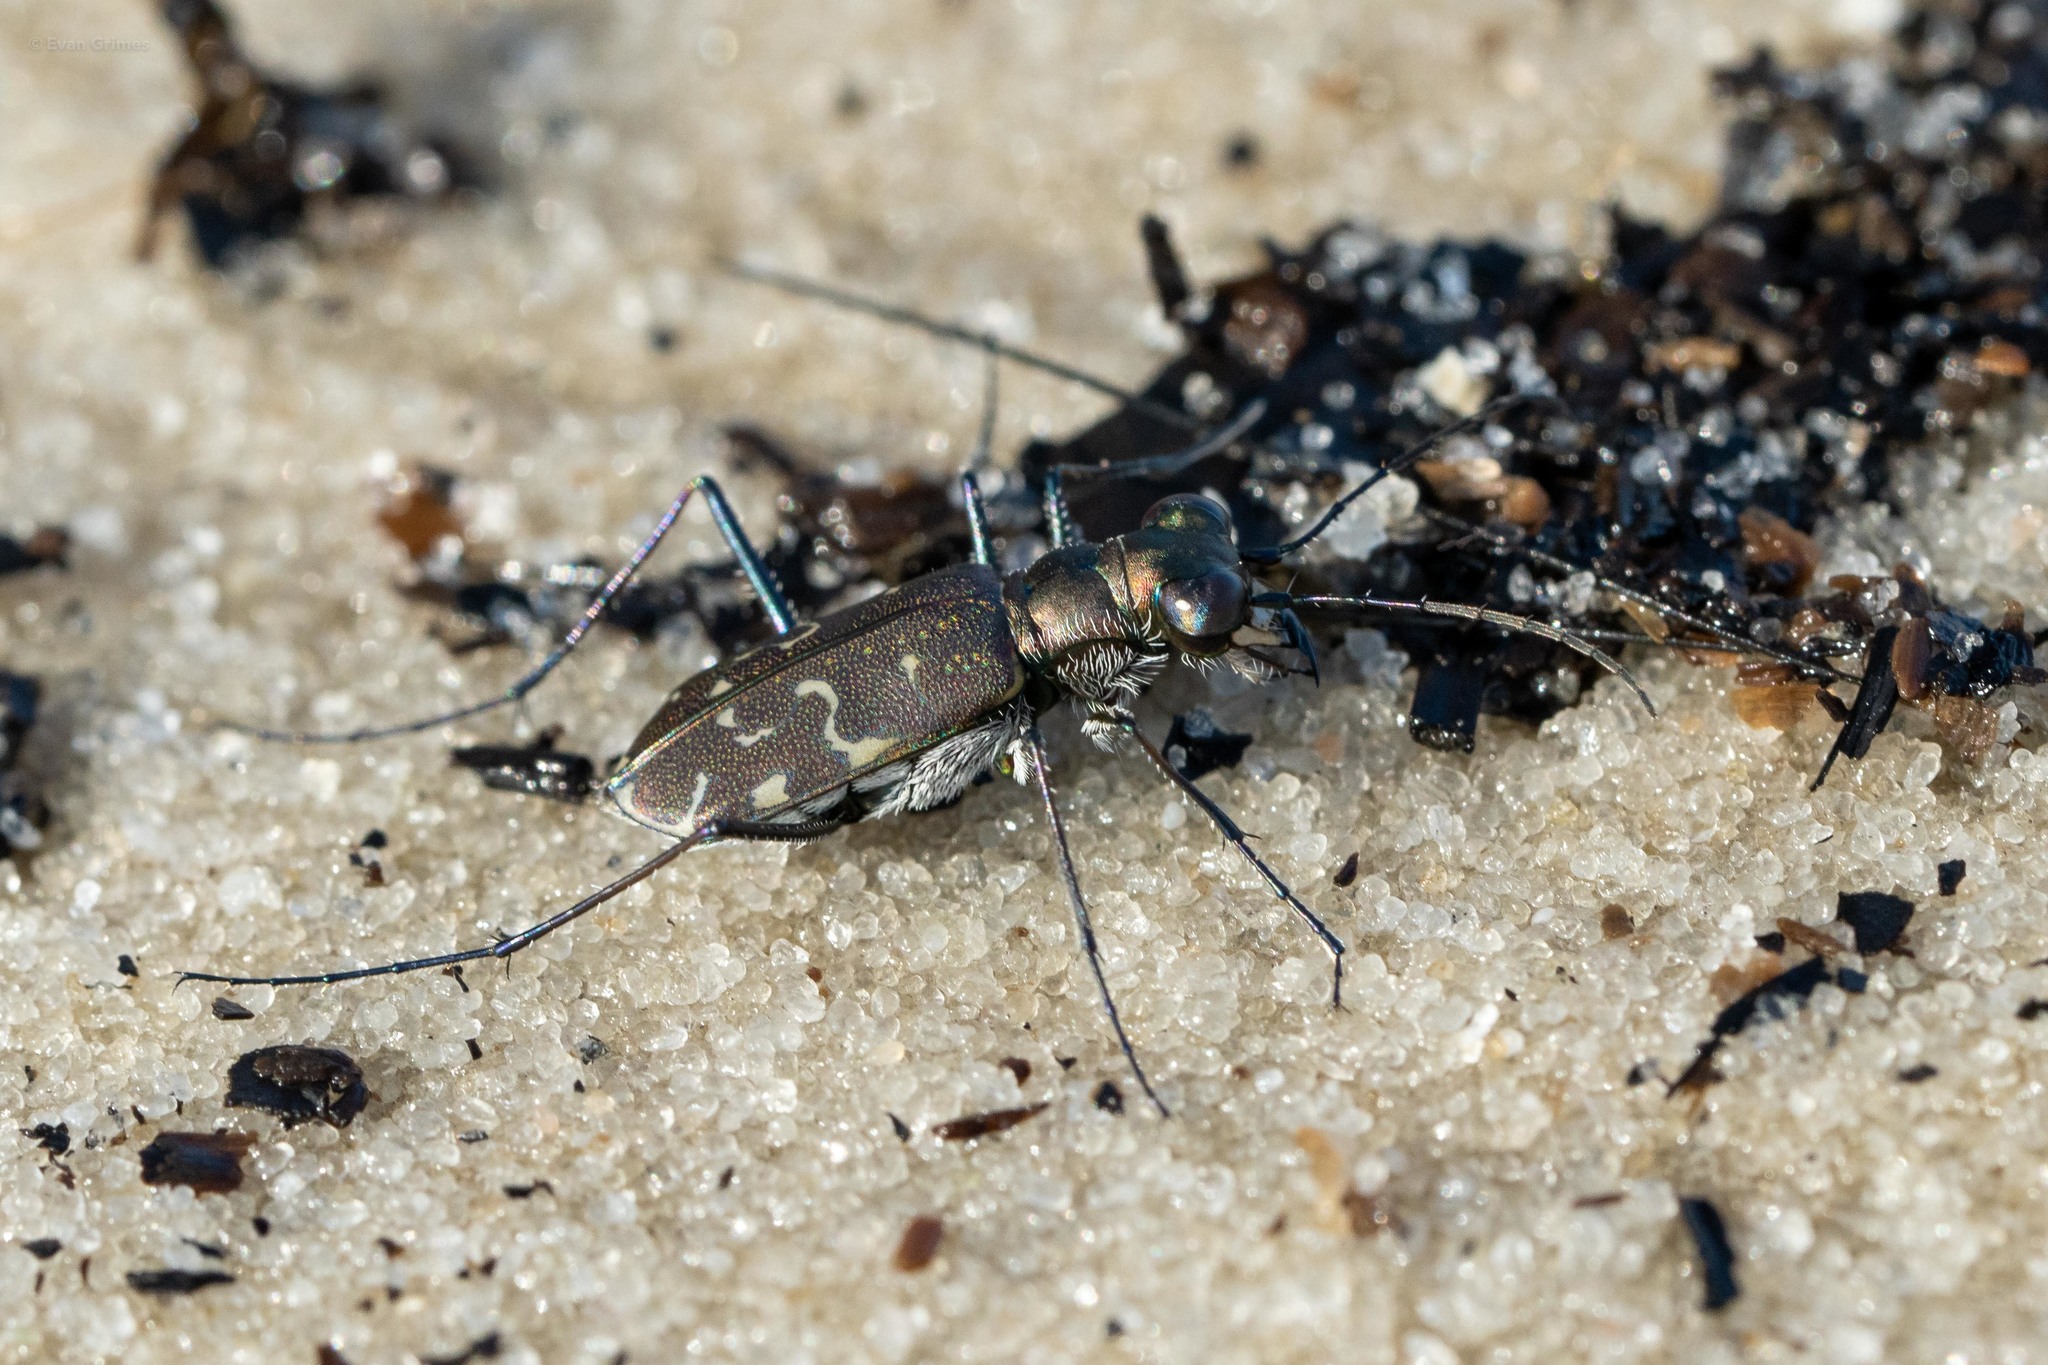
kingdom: Animalia
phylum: Arthropoda
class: Insecta
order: Coleoptera
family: Carabidae
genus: Cicindela
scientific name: Cicindela trifasciata
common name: Mudflat tiger beetle
